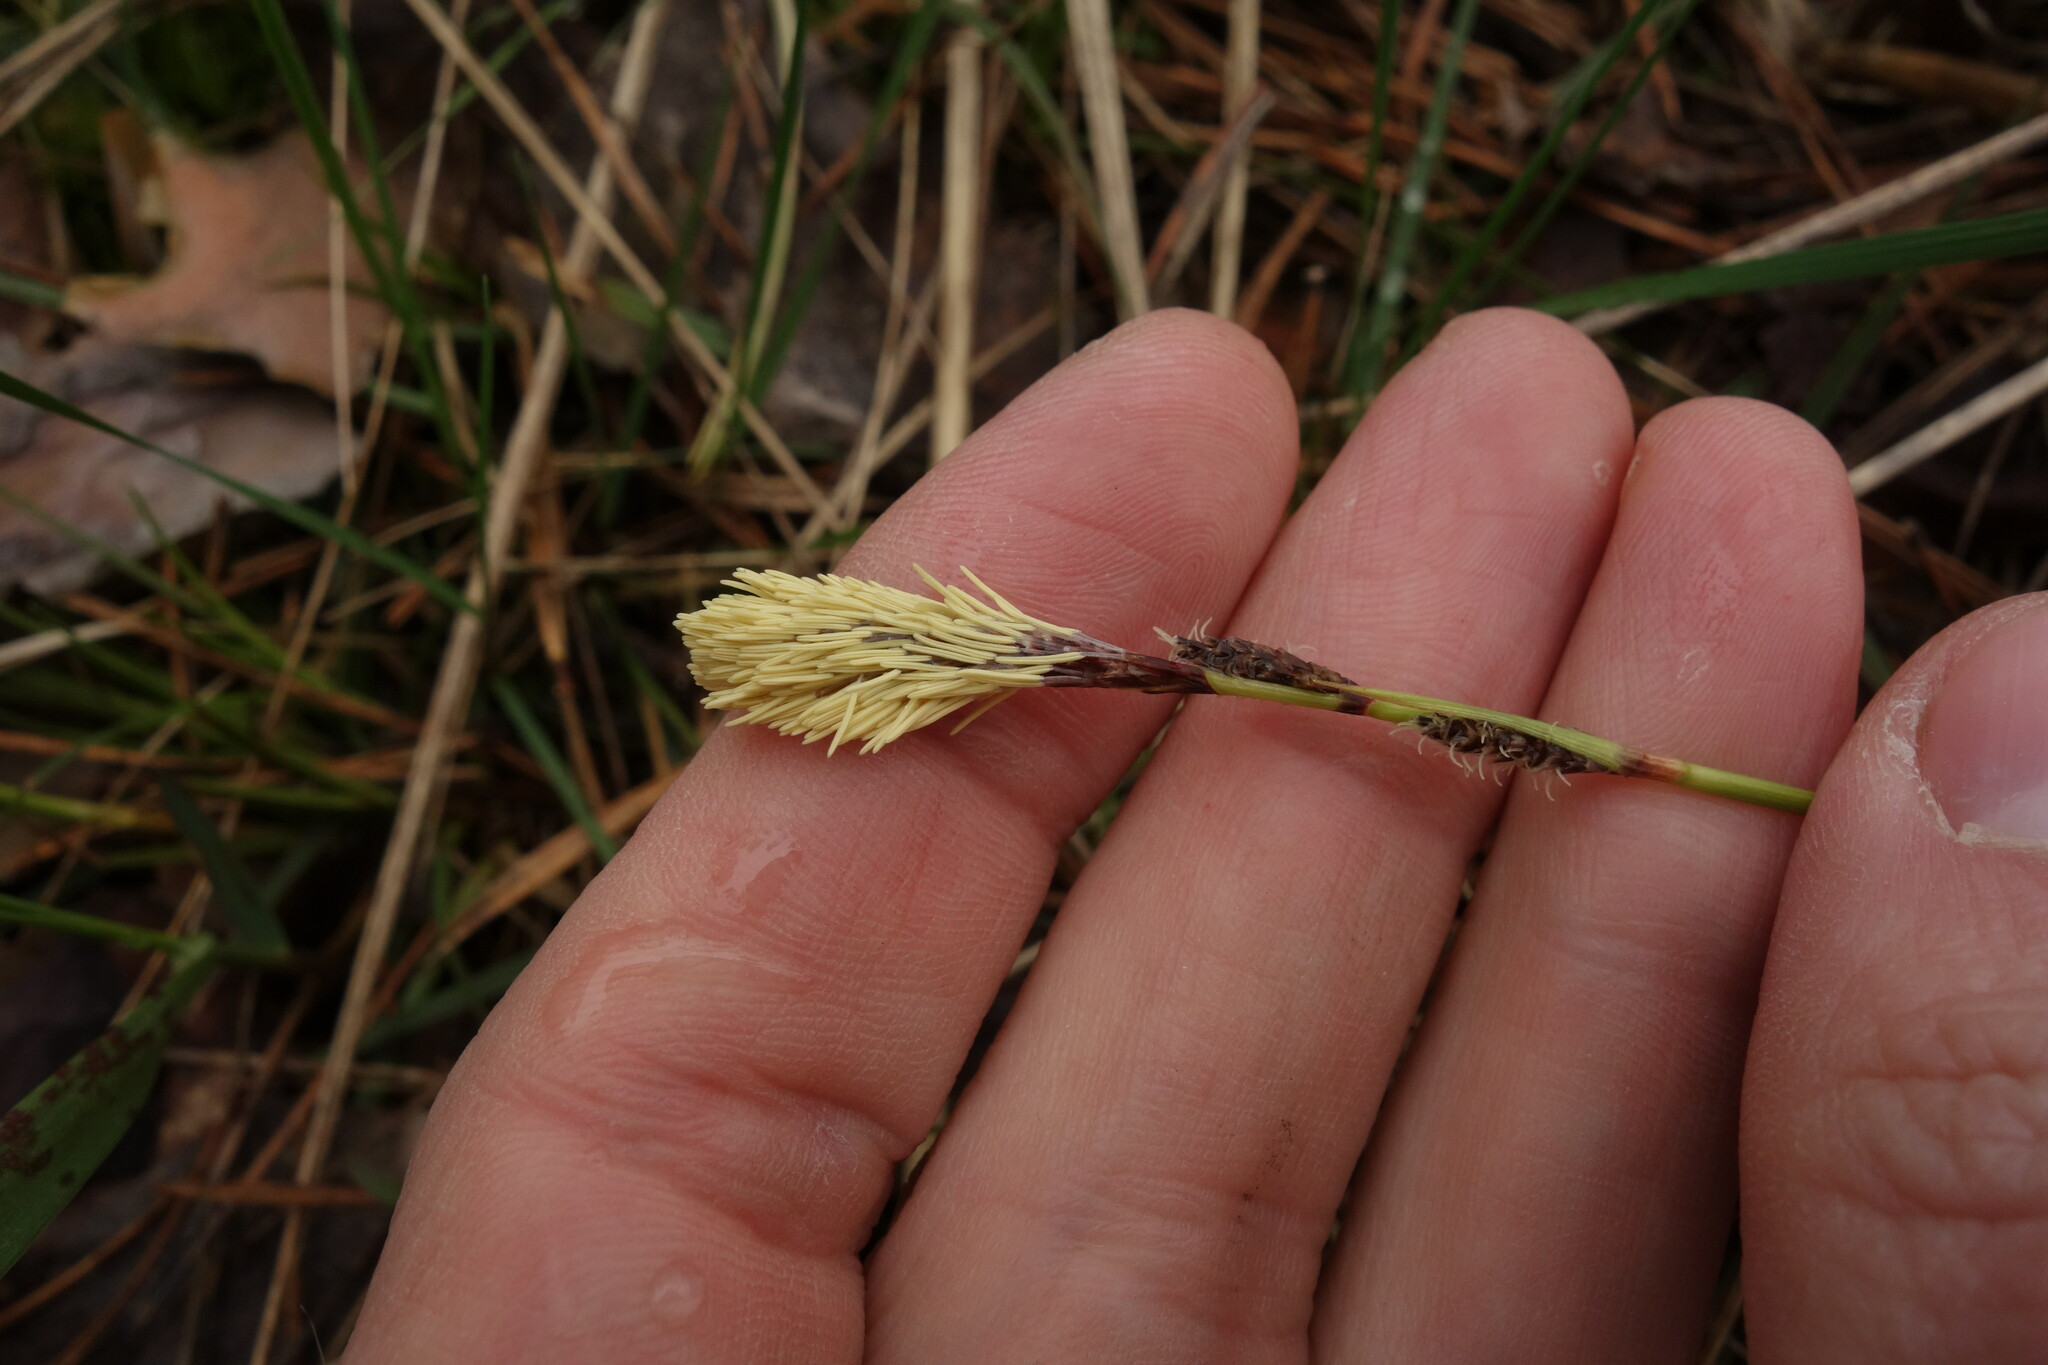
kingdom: Plantae
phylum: Tracheophyta
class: Liliopsida
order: Poales
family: Cyperaceae
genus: Carex
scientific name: Carex ericetorum
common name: Rare spring-sedge
